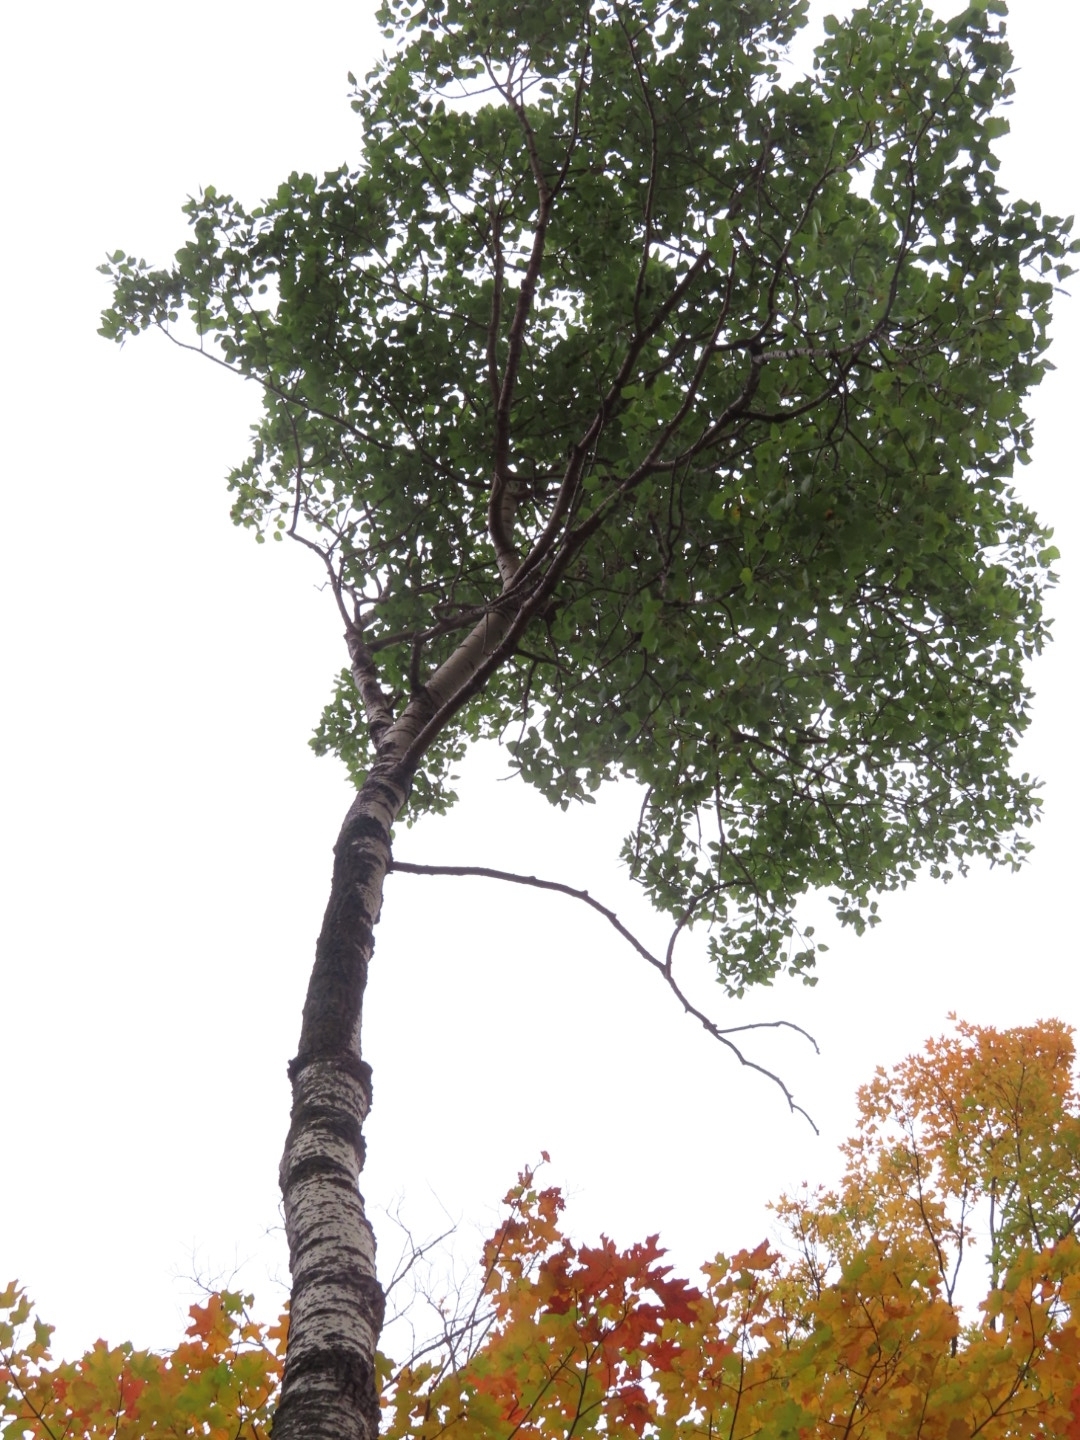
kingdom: Plantae
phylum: Tracheophyta
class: Magnoliopsida
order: Malpighiales
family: Salicaceae
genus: Populus
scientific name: Populus grandidentata
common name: Bigtooth aspen
